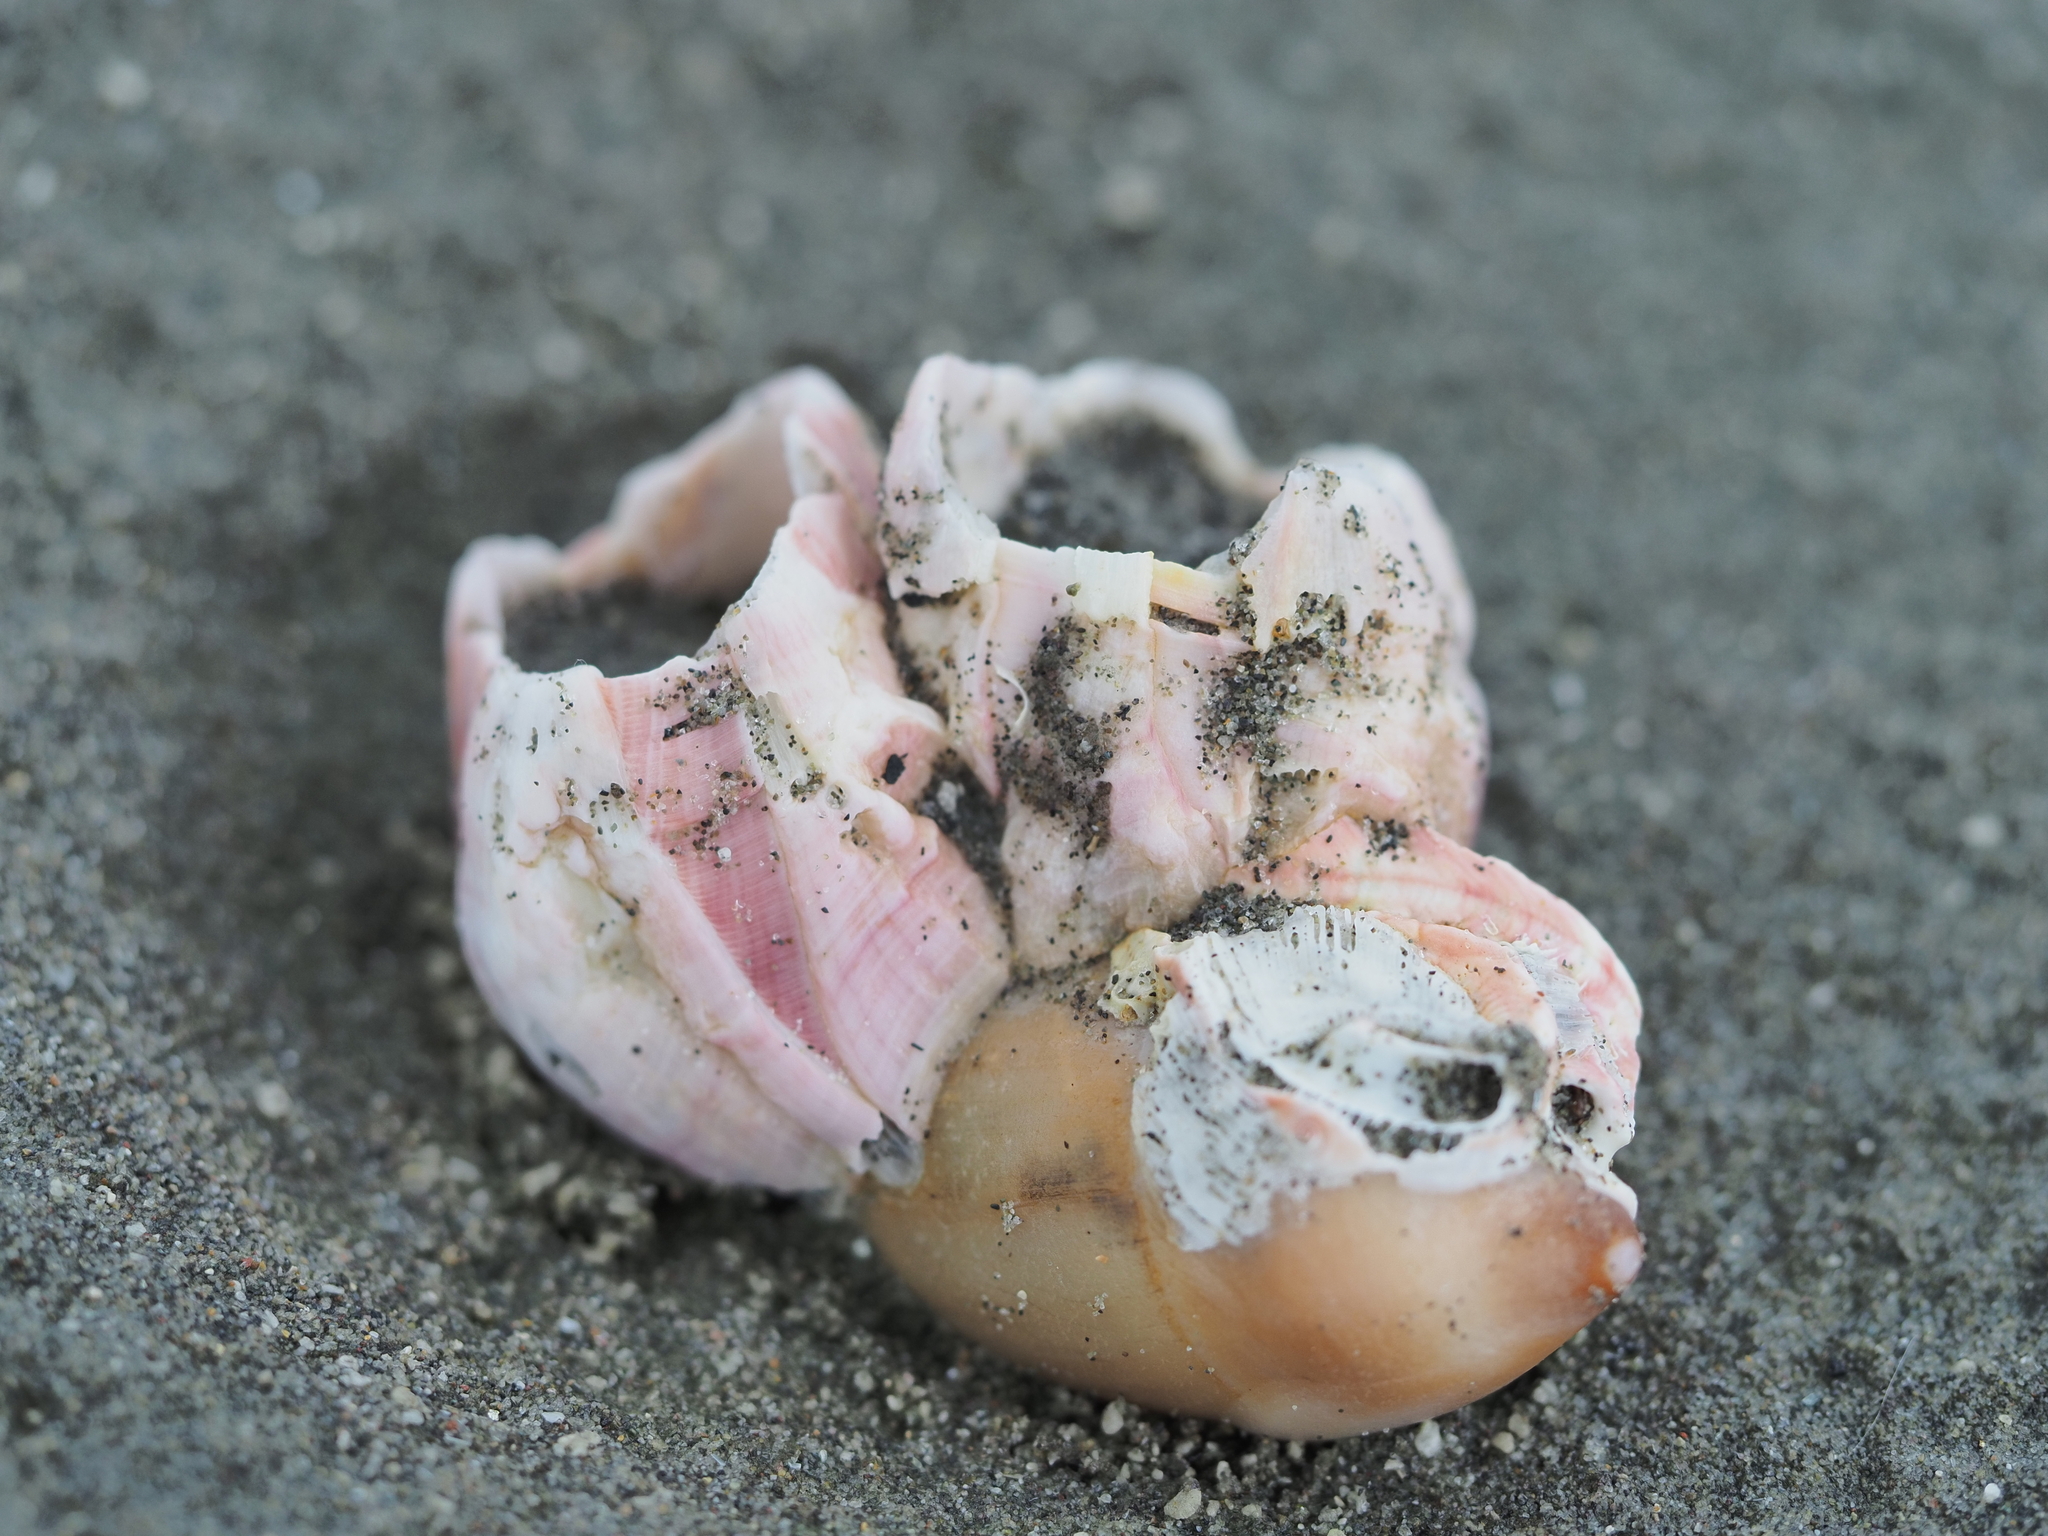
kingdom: Animalia
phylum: Arthropoda
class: Maxillopoda
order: Sessilia
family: Balanidae
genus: Notomegabalanus
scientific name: Notomegabalanus decorus
